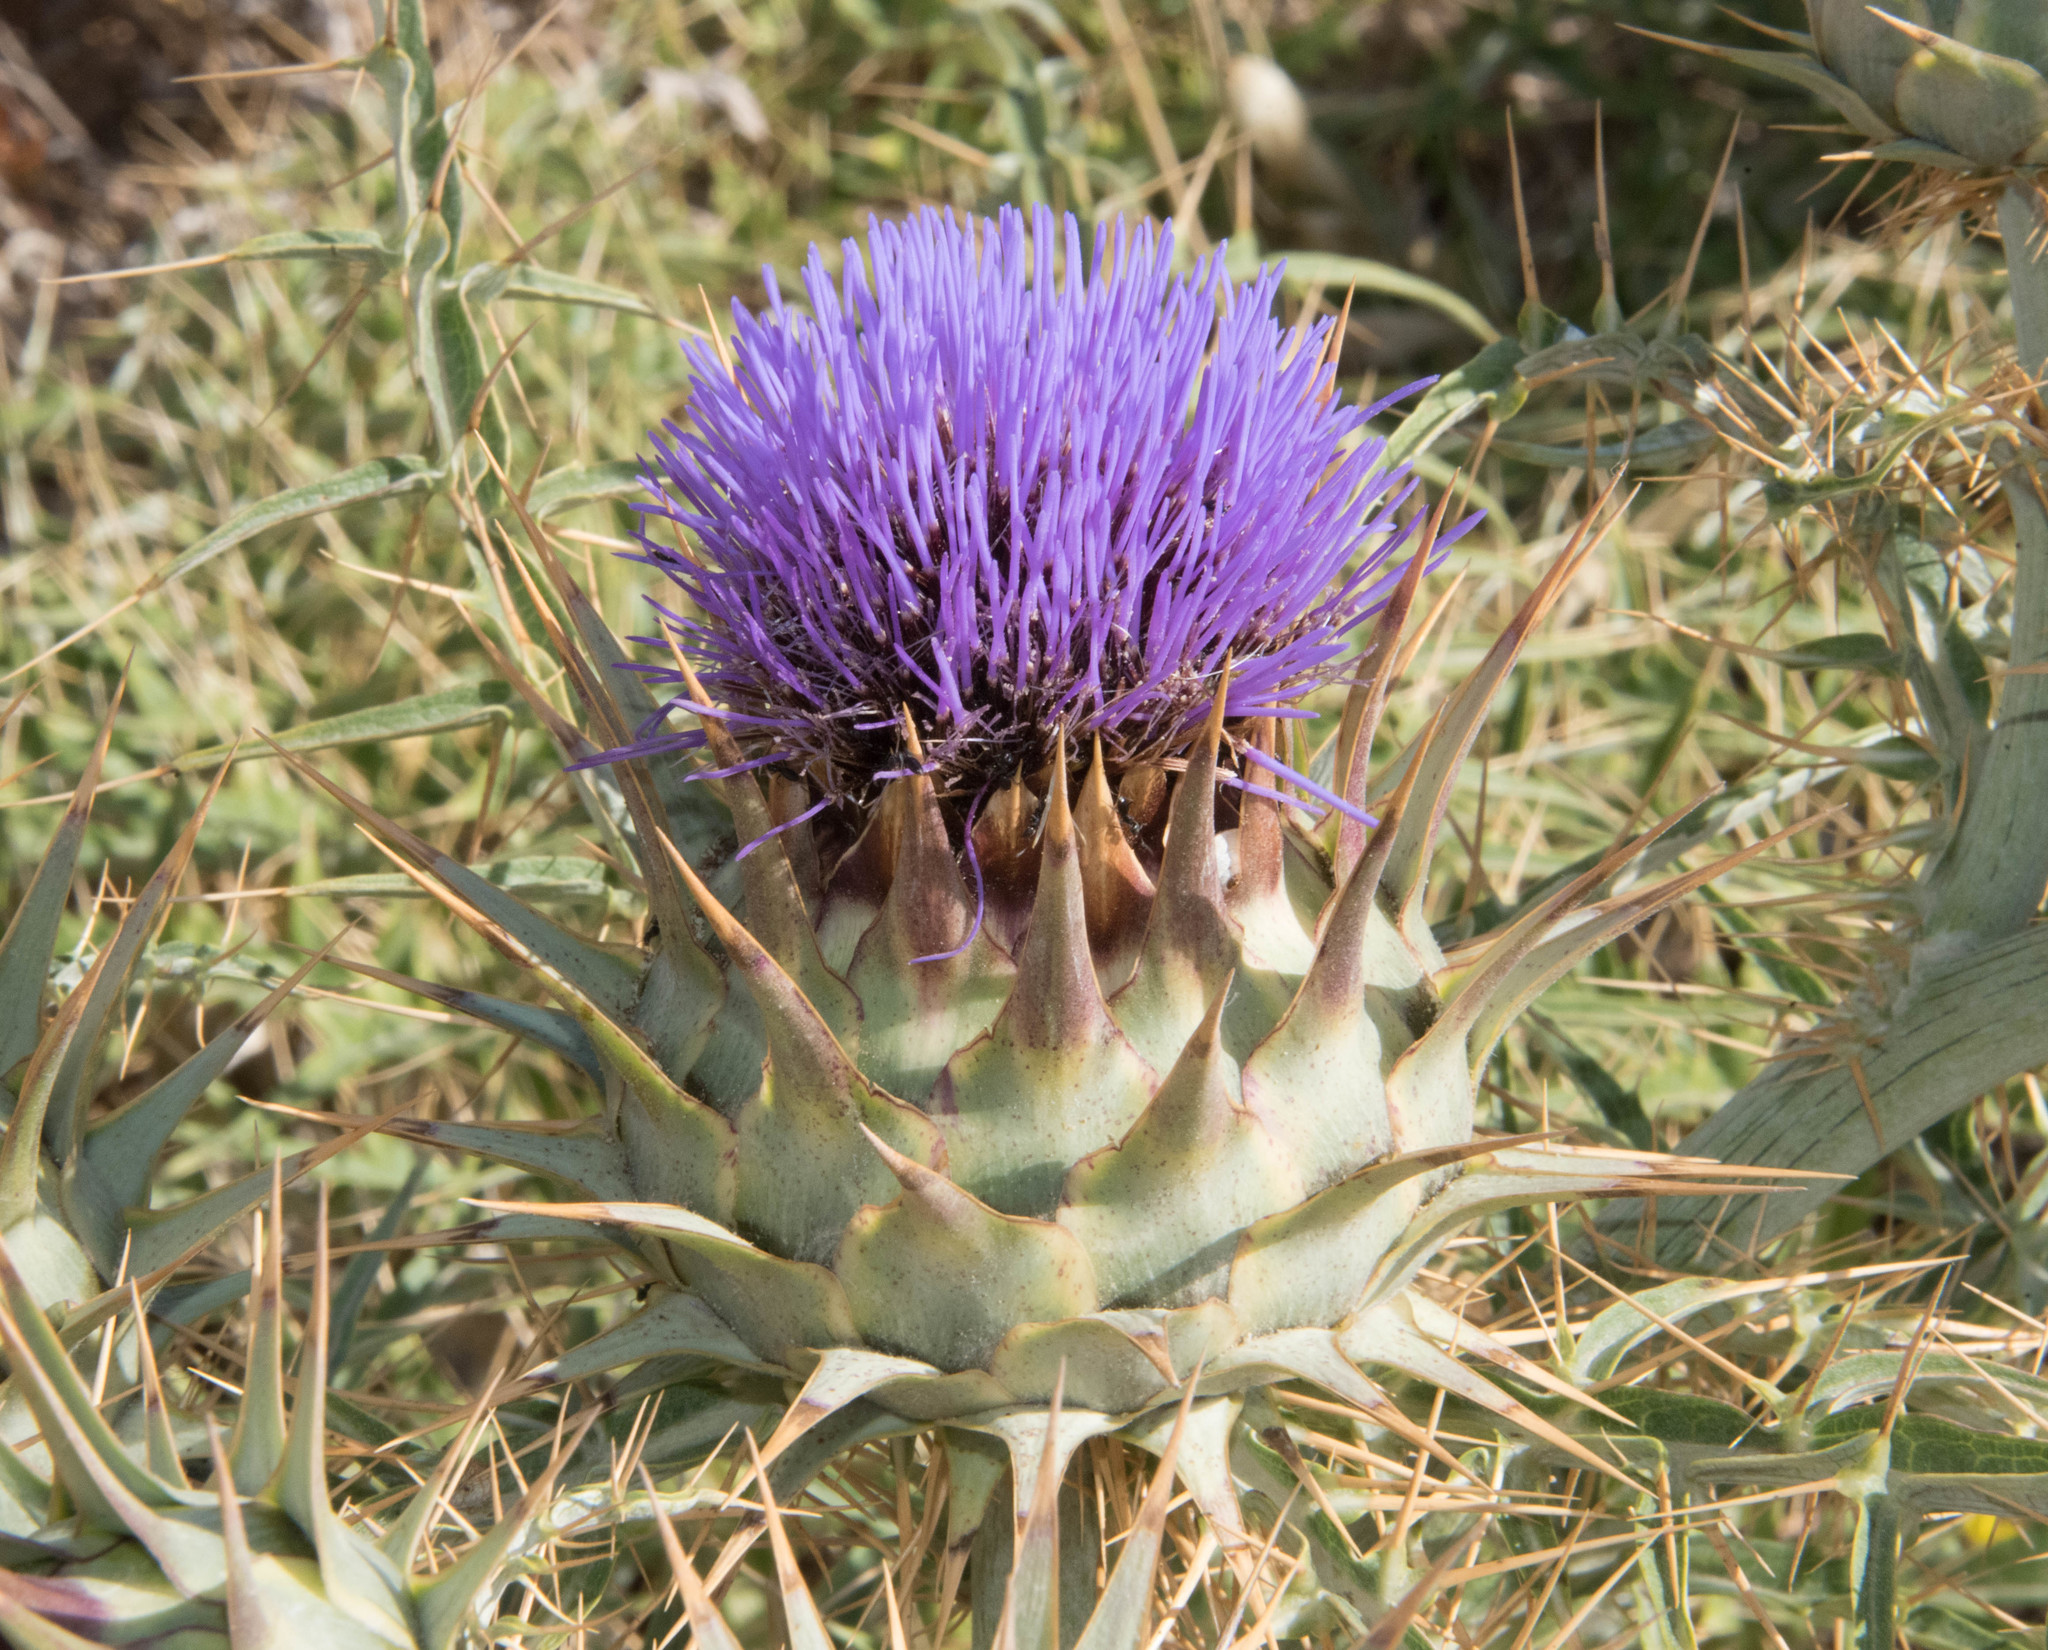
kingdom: Plantae
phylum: Tracheophyta
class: Magnoliopsida
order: Asterales
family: Asteraceae
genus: Cynara
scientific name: Cynara cardunculus
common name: Globe artichoke
